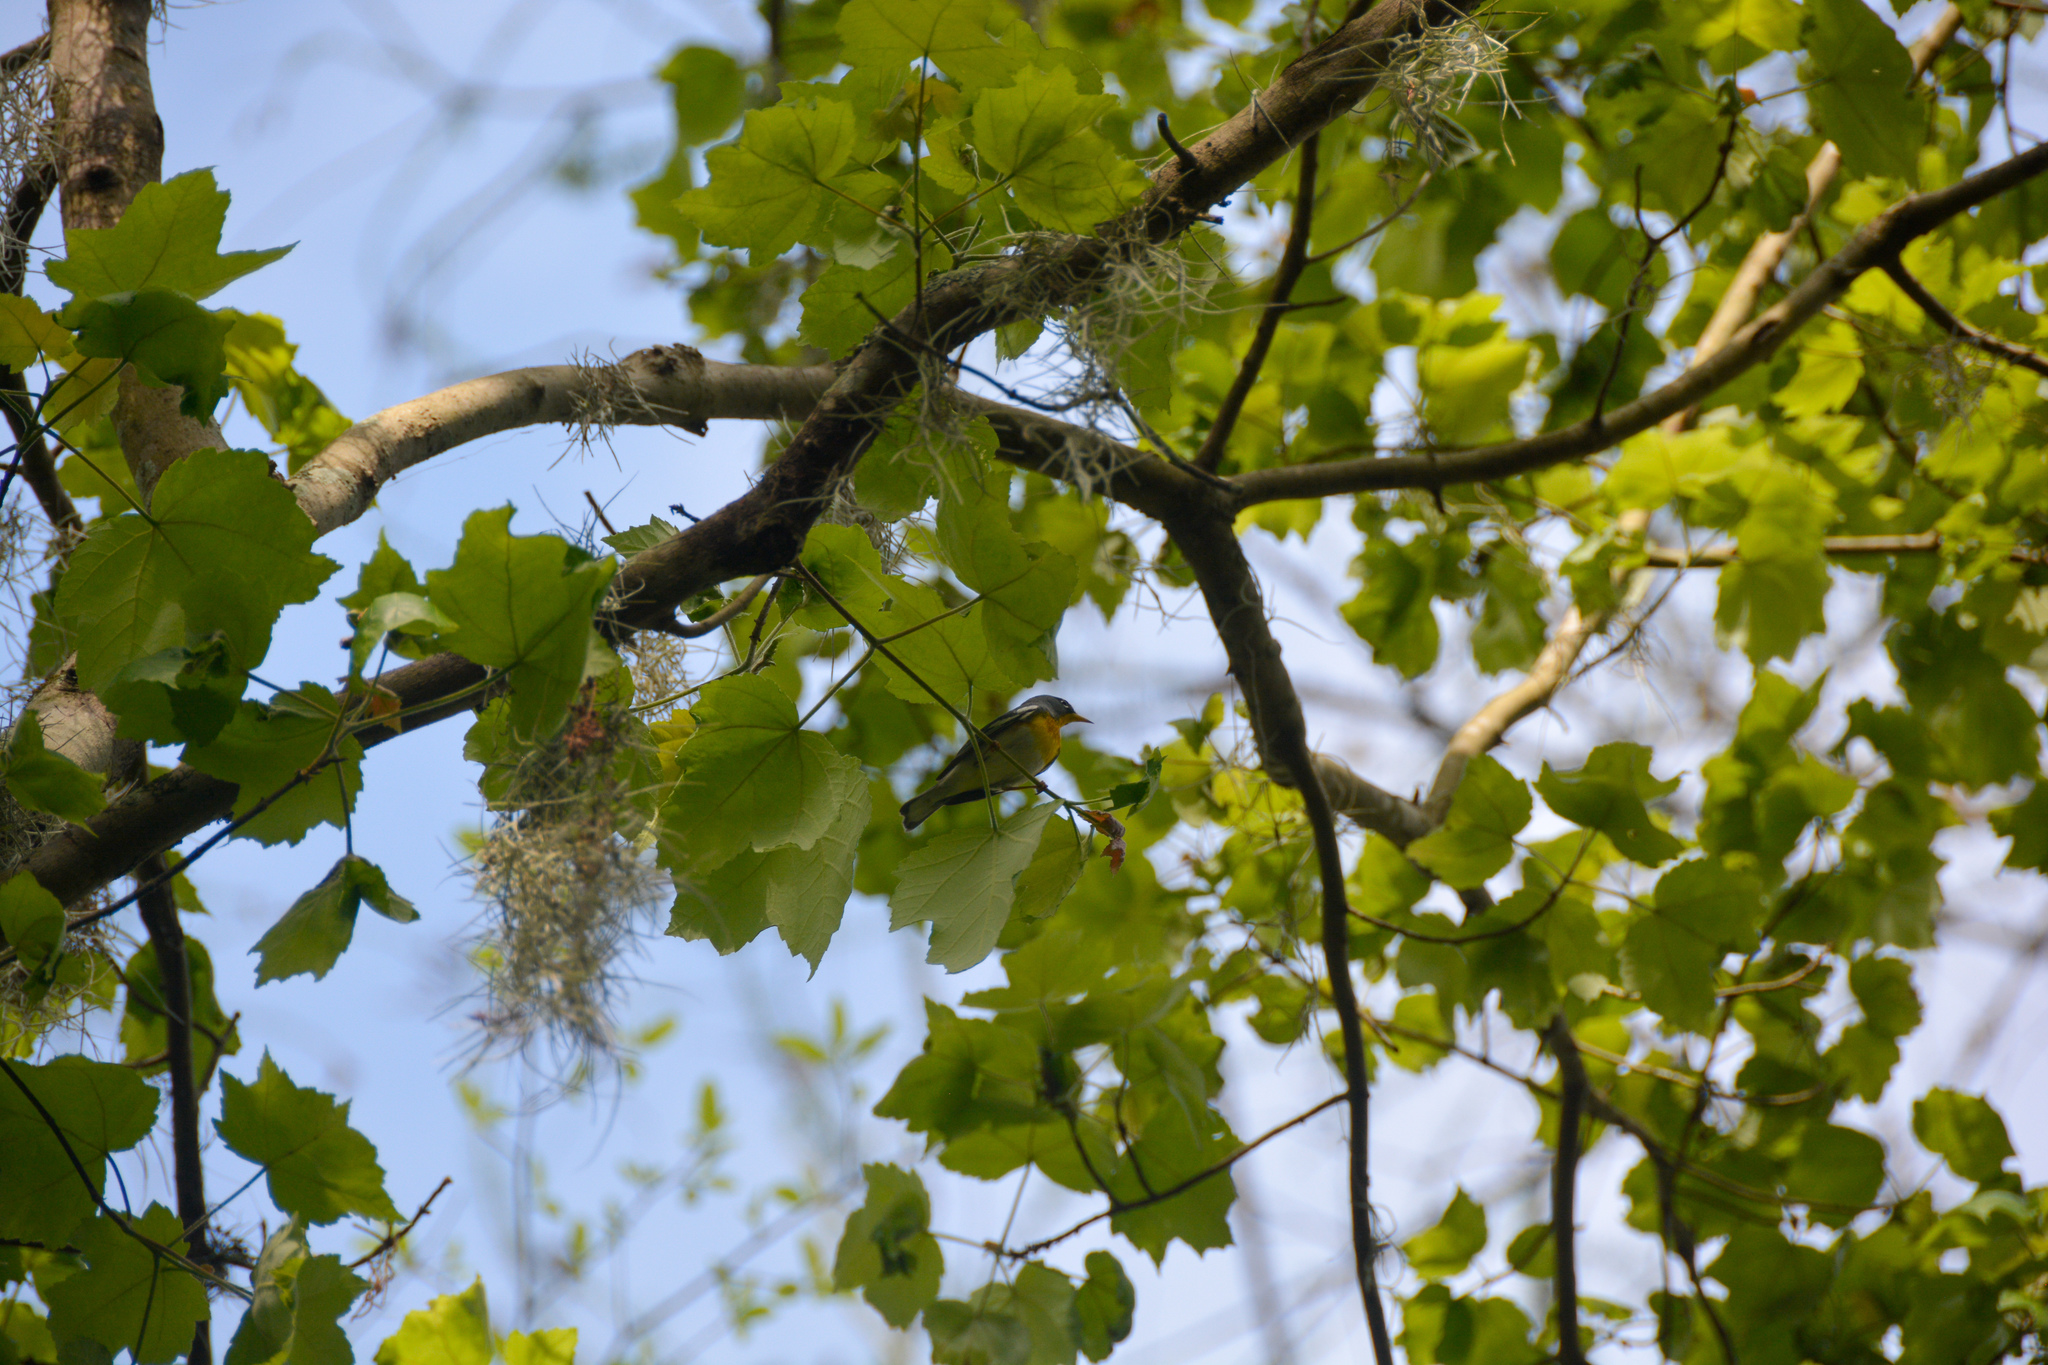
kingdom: Animalia
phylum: Chordata
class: Aves
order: Passeriformes
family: Parulidae
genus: Setophaga
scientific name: Setophaga americana
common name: Northern parula
